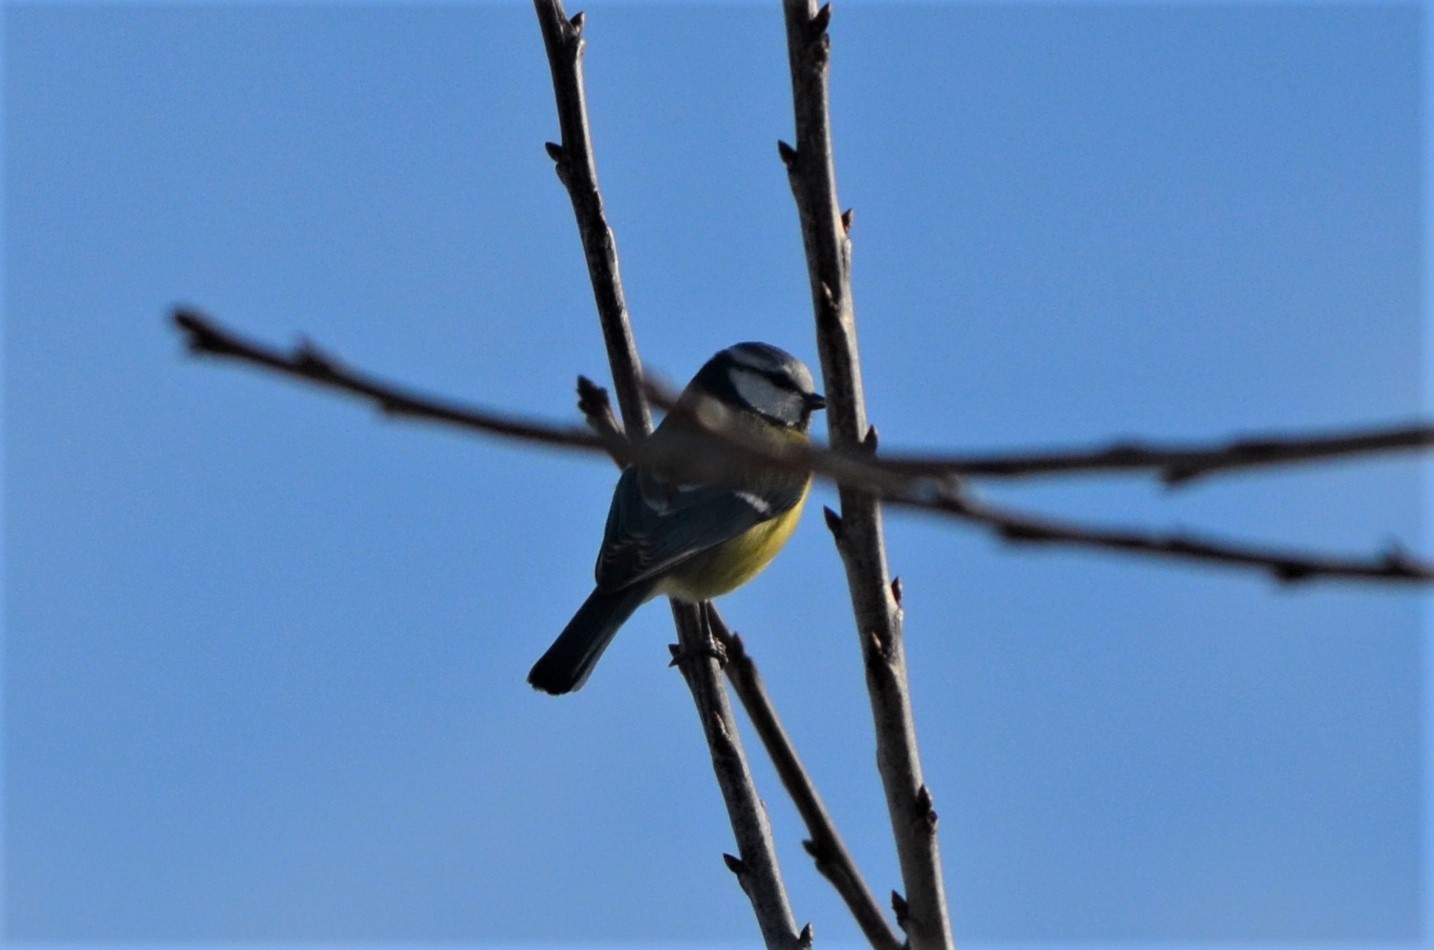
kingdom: Animalia
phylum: Chordata
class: Aves
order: Passeriformes
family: Paridae
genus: Cyanistes
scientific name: Cyanistes caeruleus
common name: Eurasian blue tit
